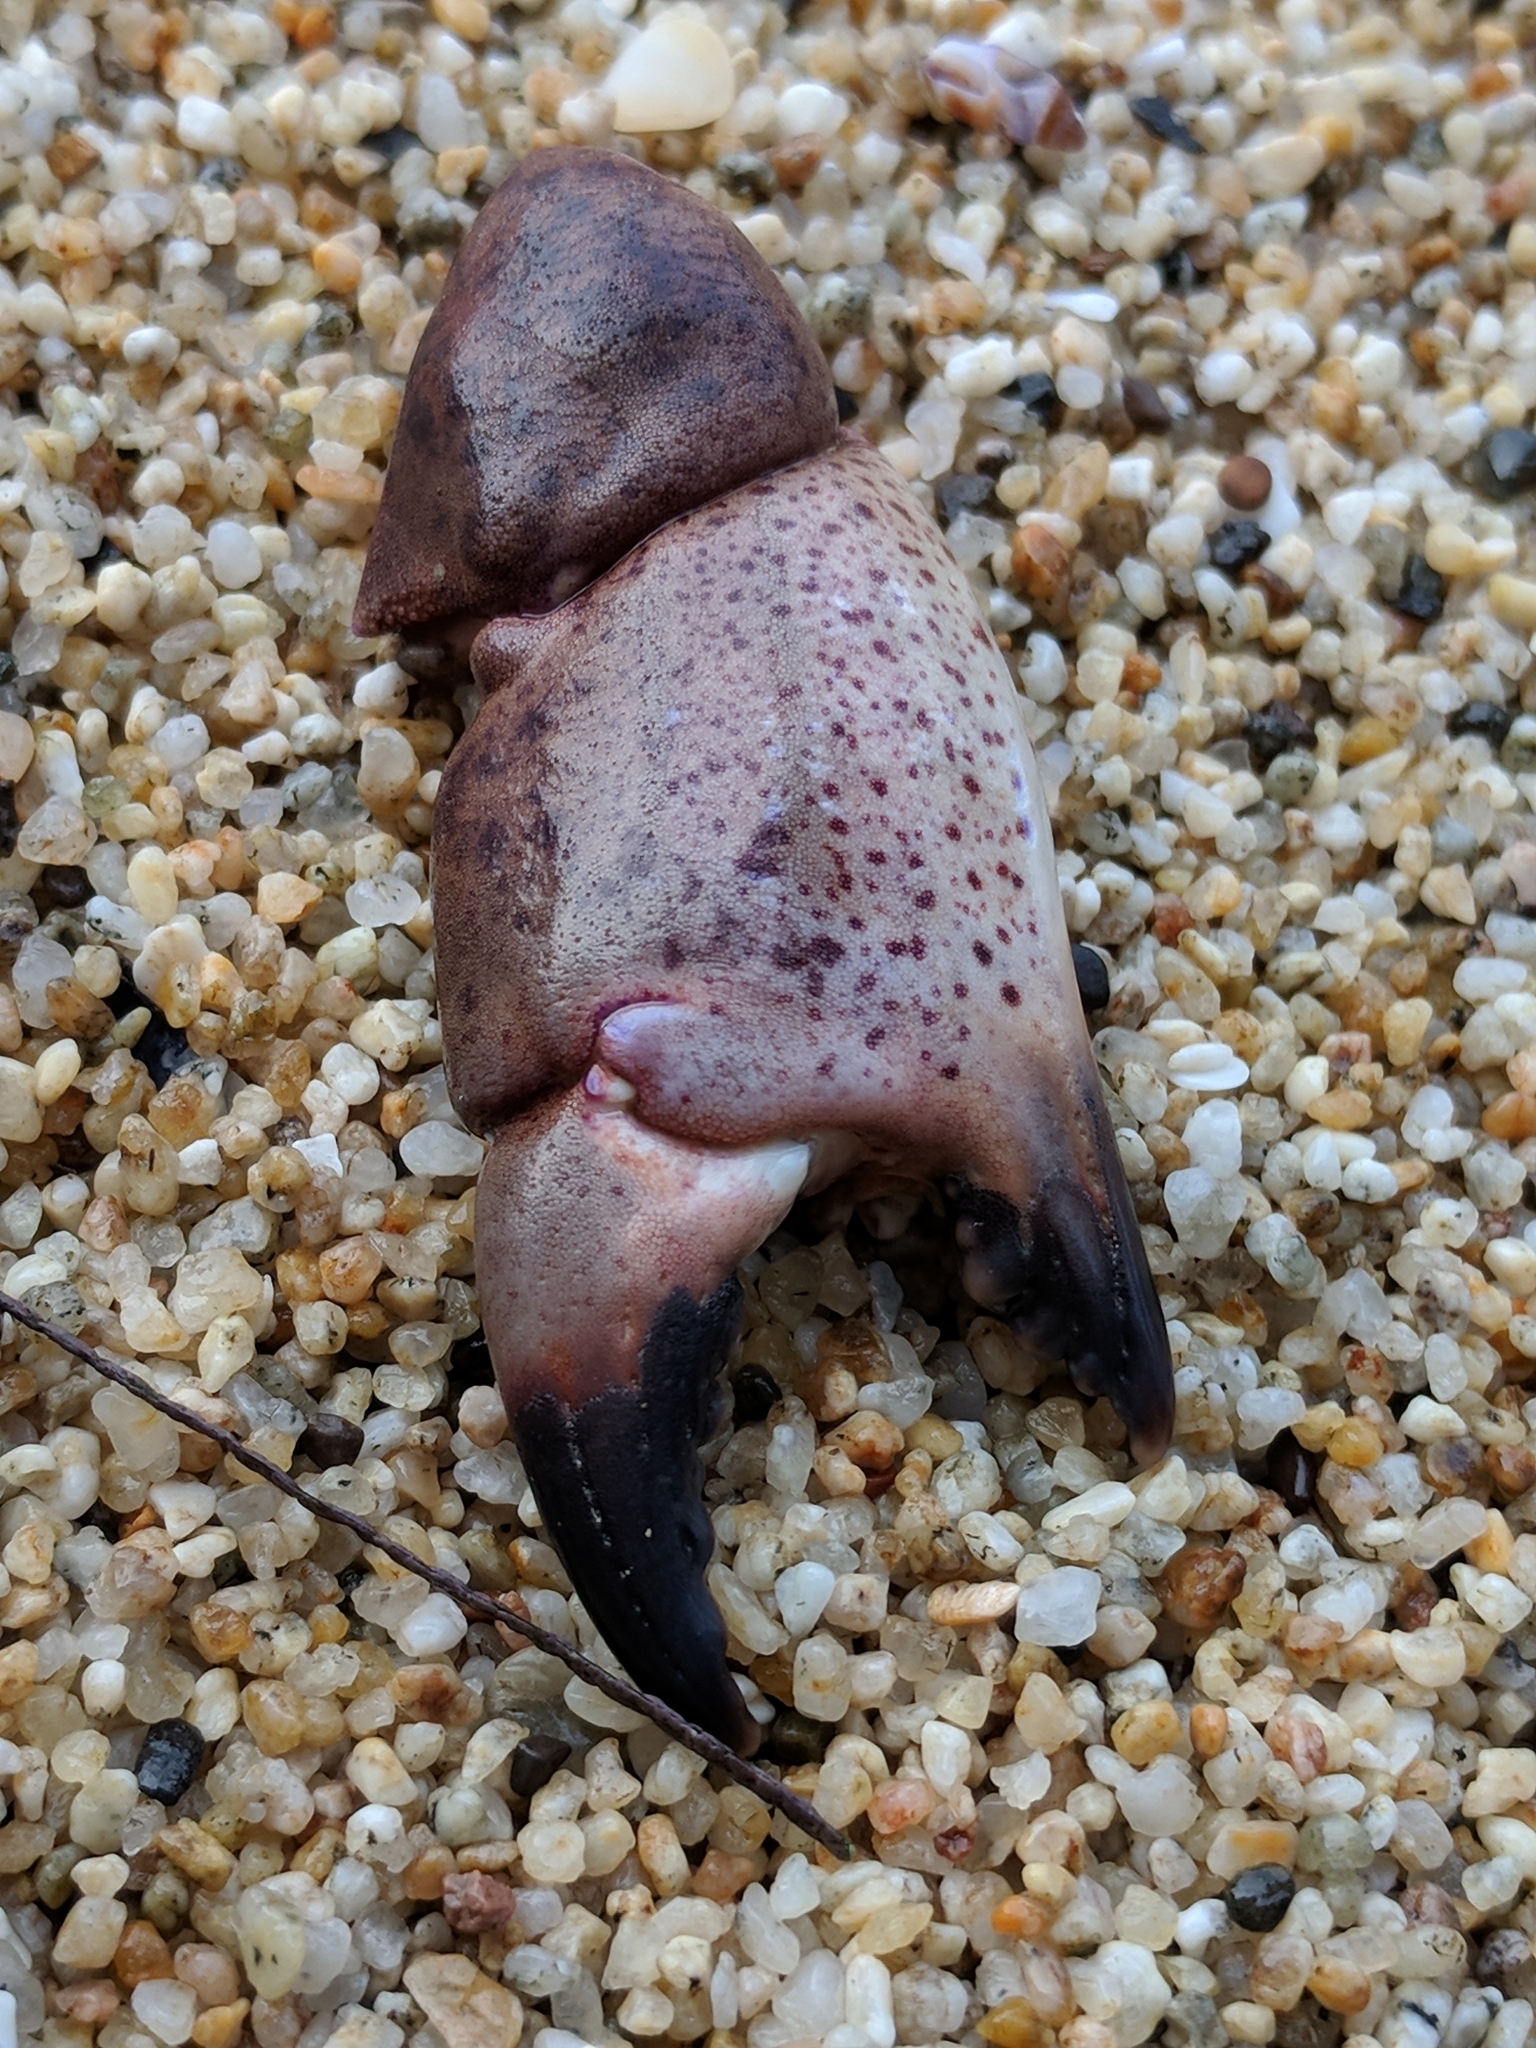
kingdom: Animalia
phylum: Arthropoda
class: Malacostraca
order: Decapoda
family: Cancridae
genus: Romaleon
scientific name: Romaleon antennarium
